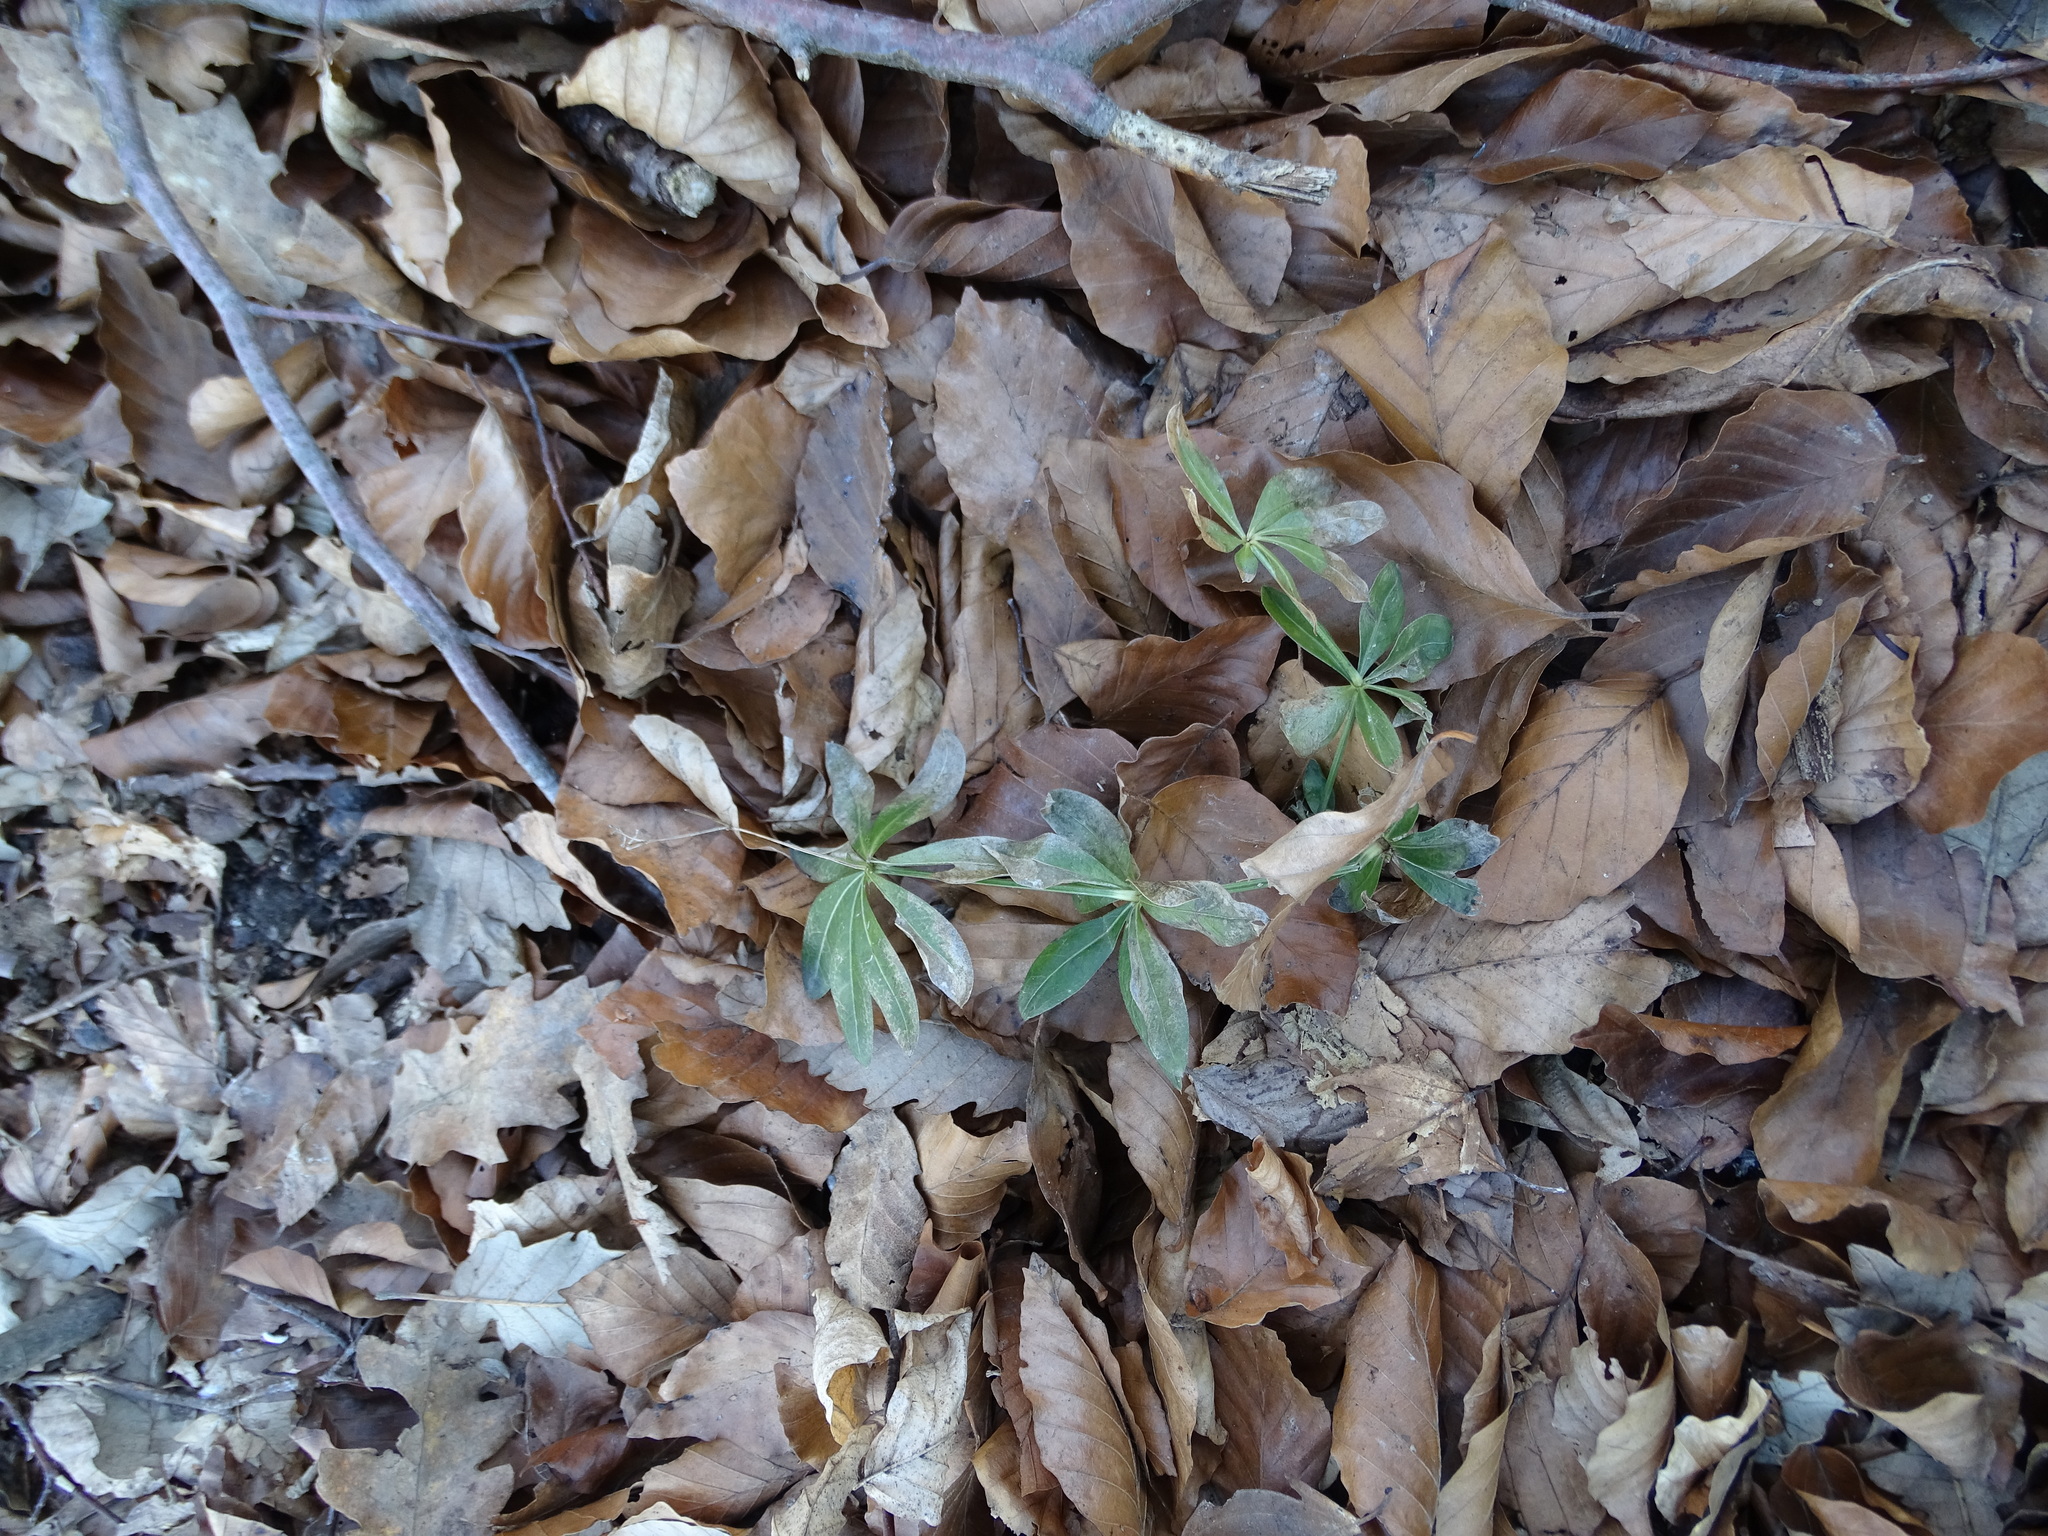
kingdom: Plantae
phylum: Tracheophyta
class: Magnoliopsida
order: Gentianales
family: Rubiaceae
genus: Galium
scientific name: Galium odoratum
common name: Sweet woodruff
